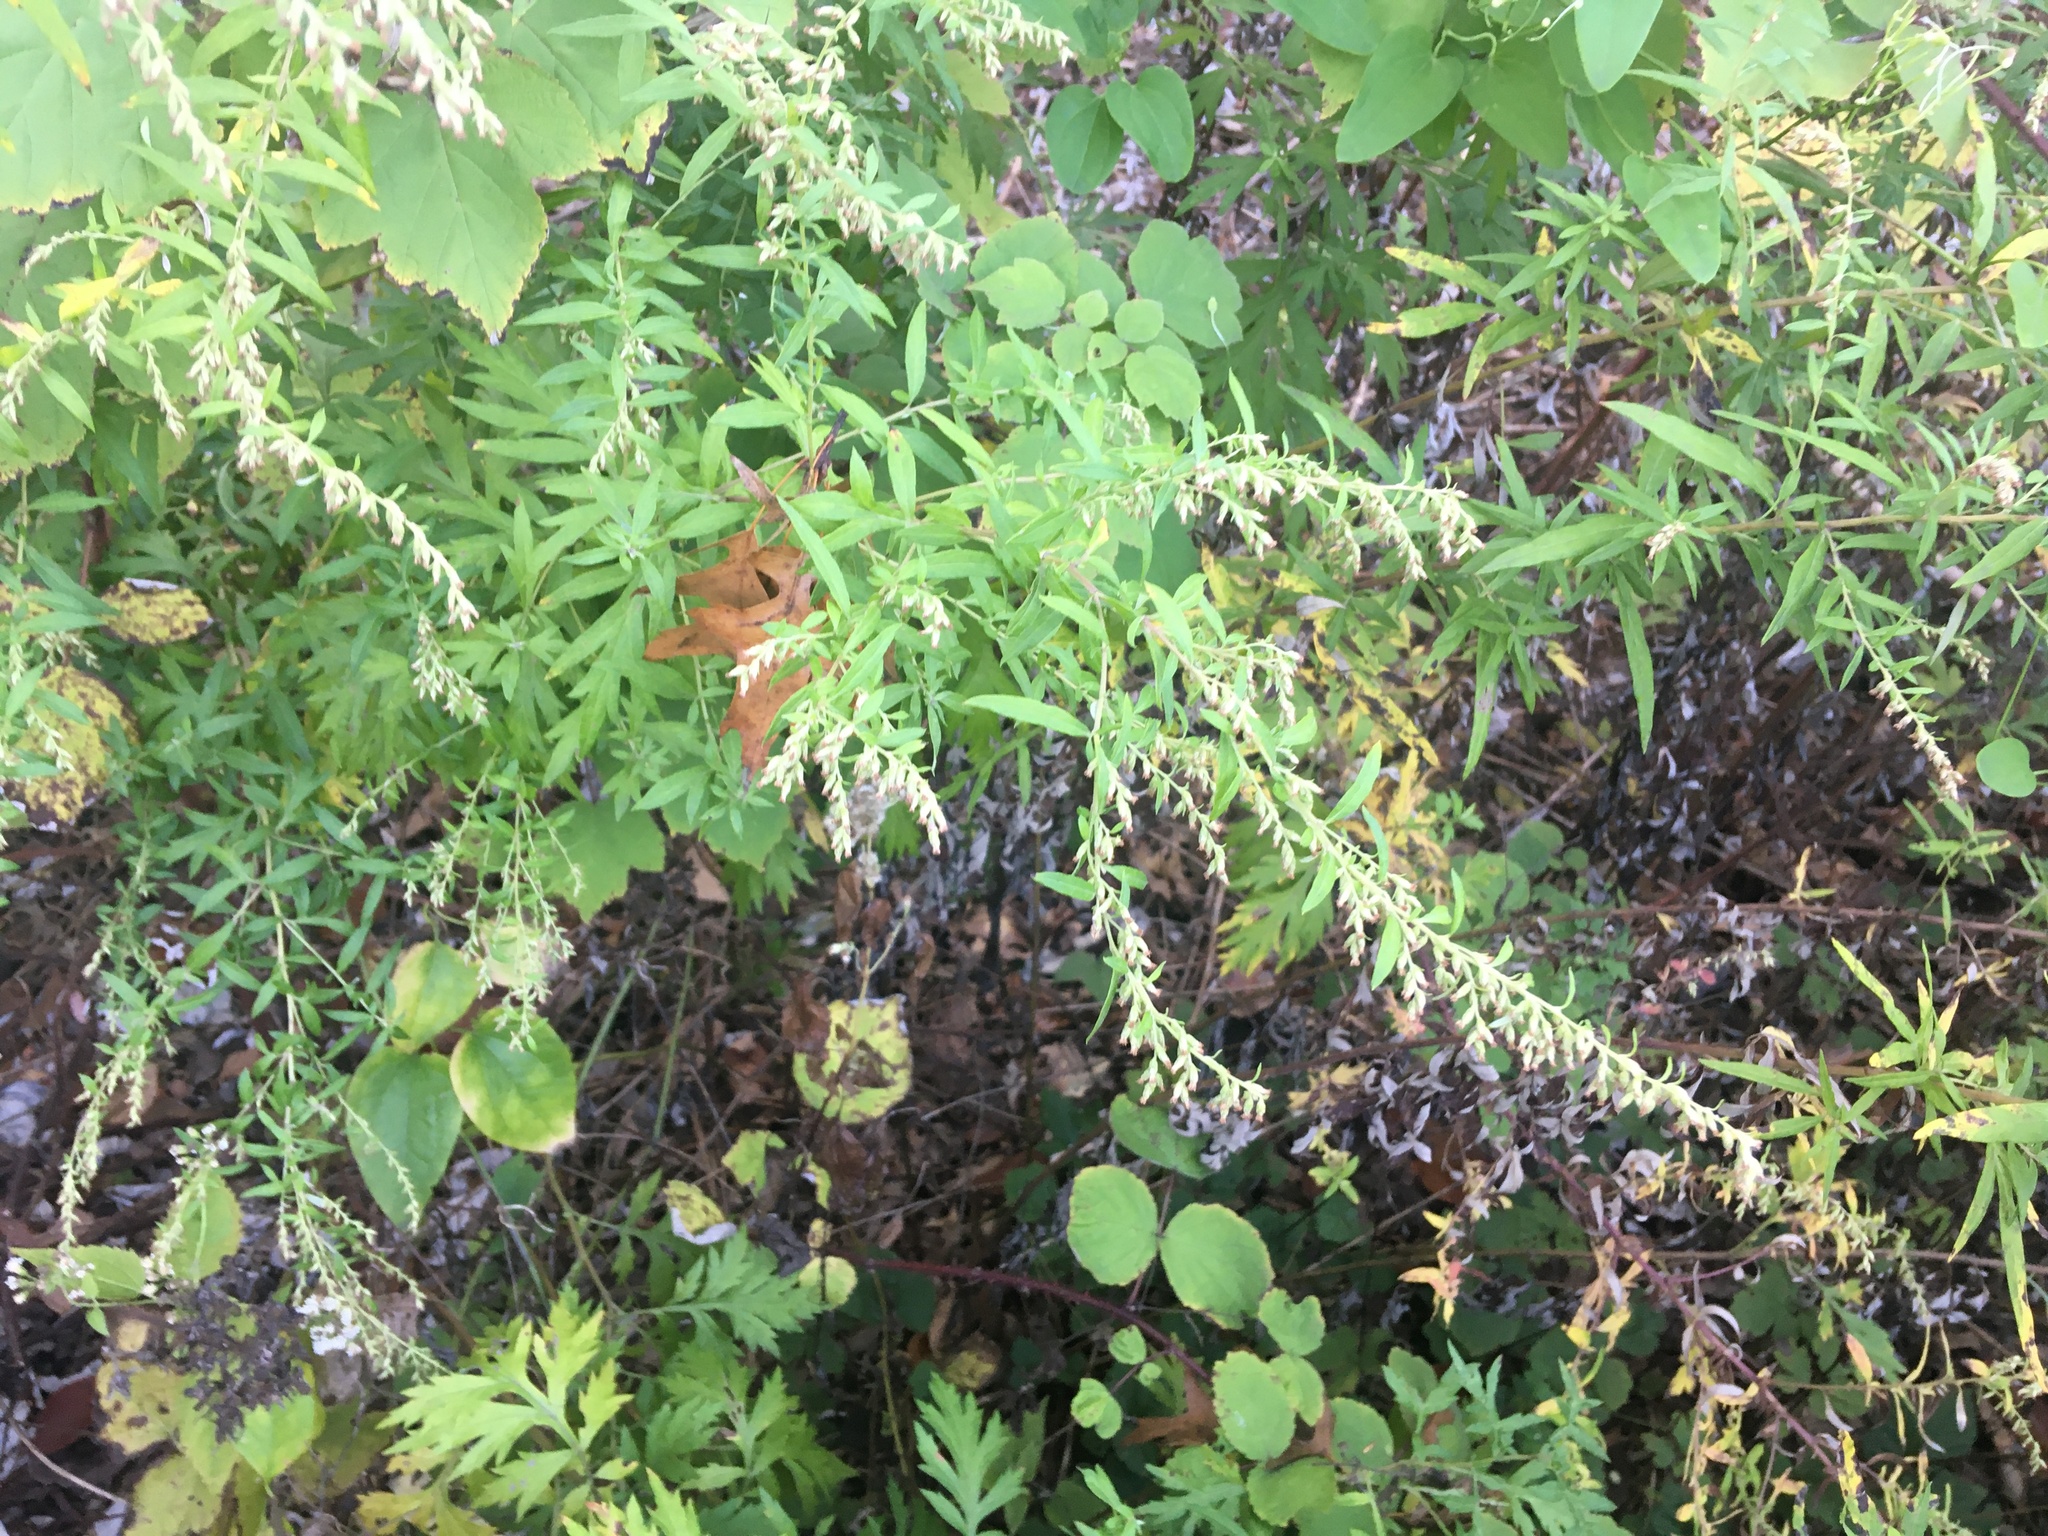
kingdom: Plantae
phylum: Tracheophyta
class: Magnoliopsida
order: Asterales
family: Asteraceae
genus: Artemisia
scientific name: Artemisia vulgaris
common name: Mugwort
